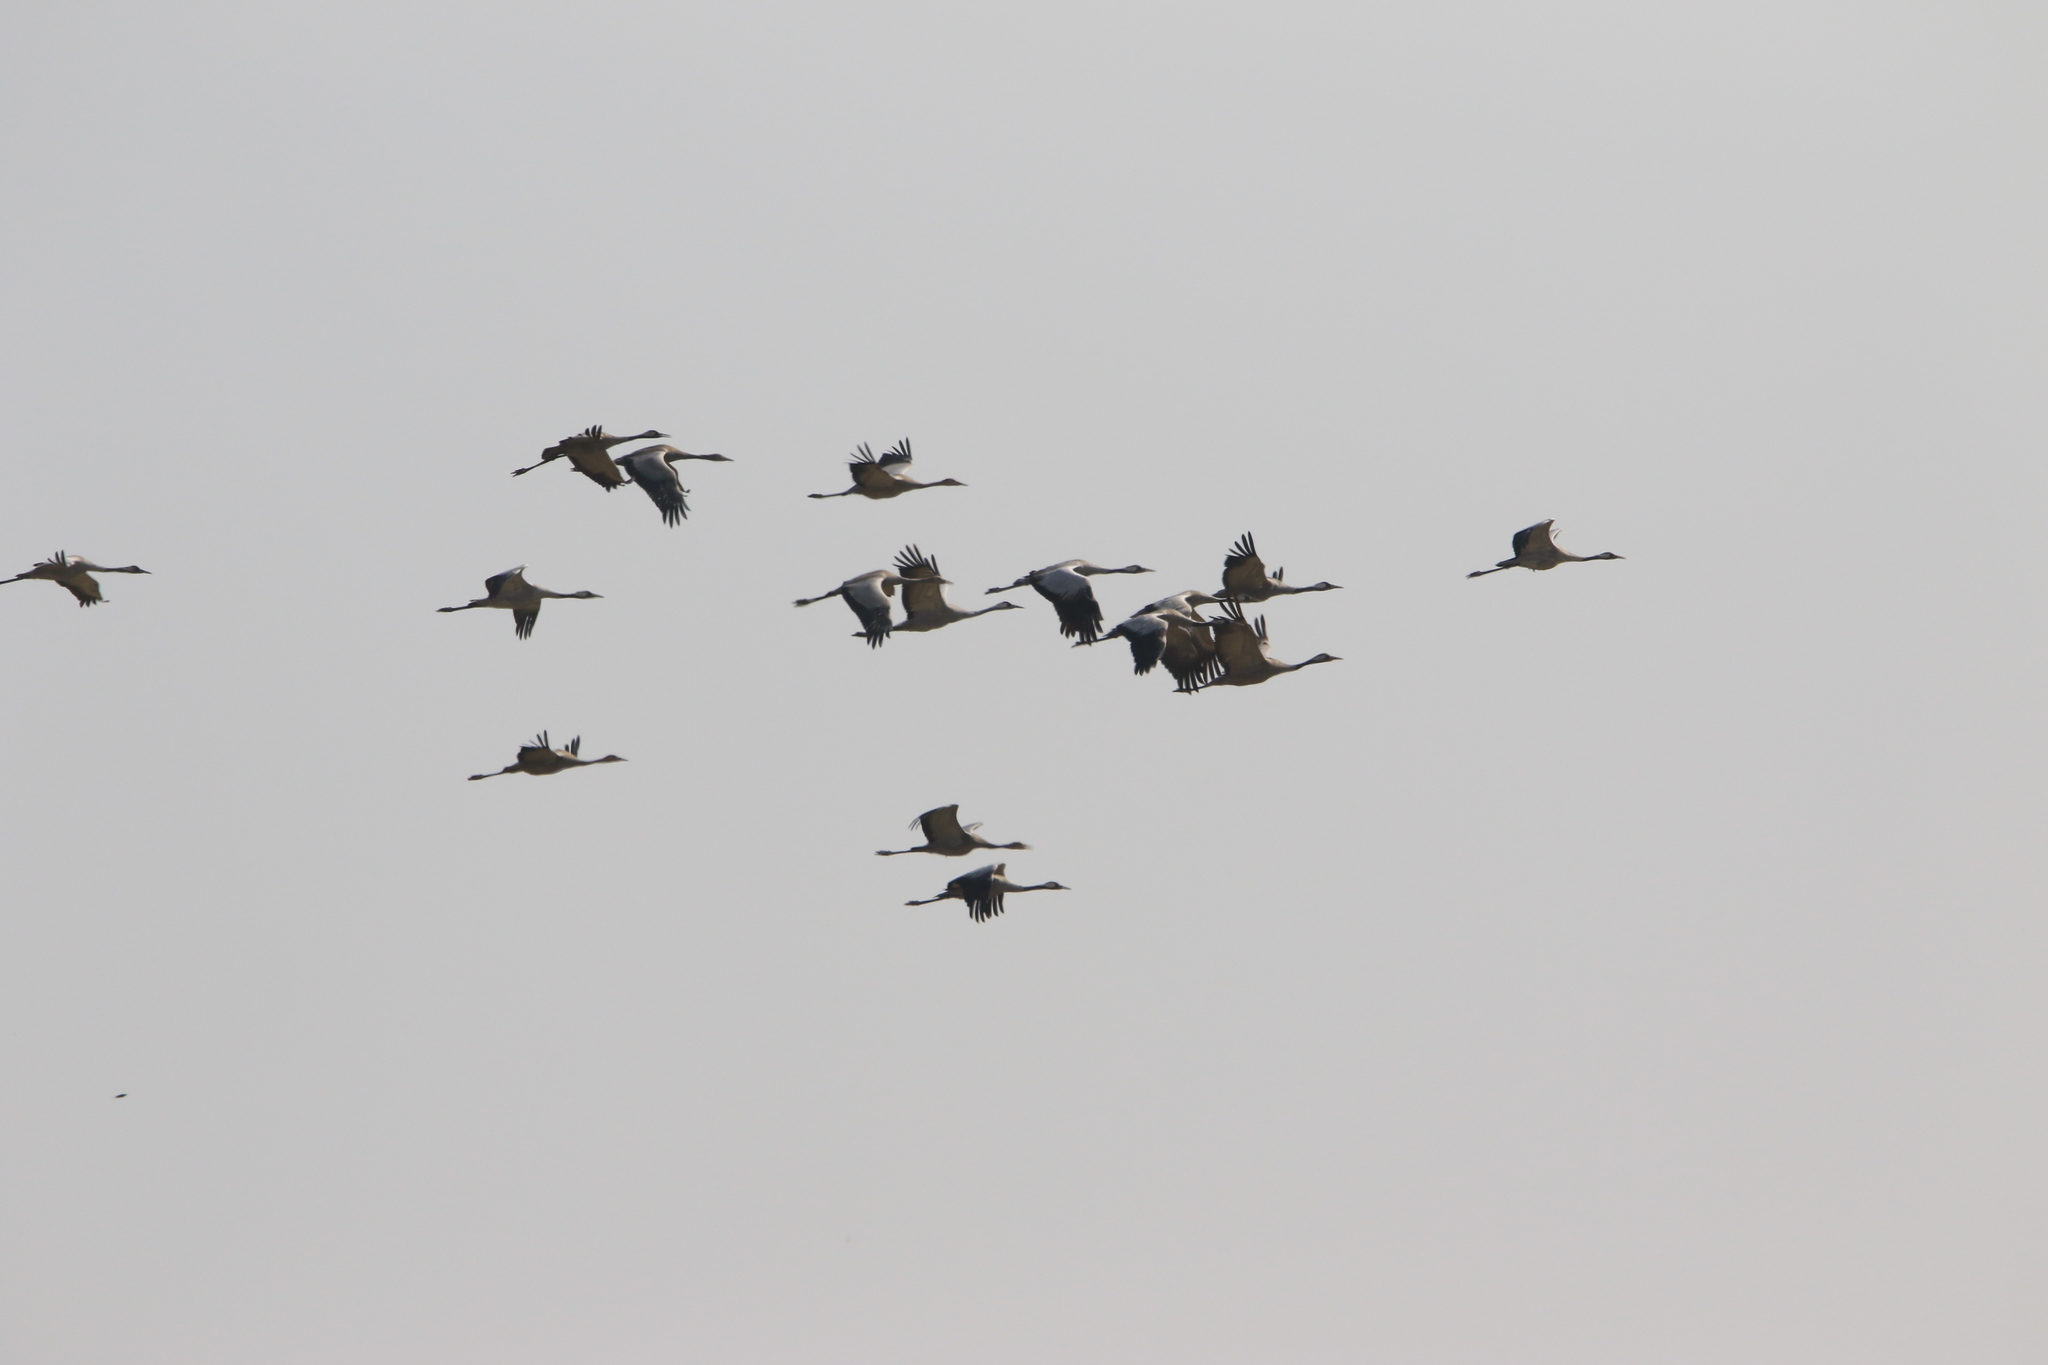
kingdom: Animalia
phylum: Chordata
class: Aves
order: Gruiformes
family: Gruidae
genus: Grus
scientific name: Grus grus
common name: Common crane
